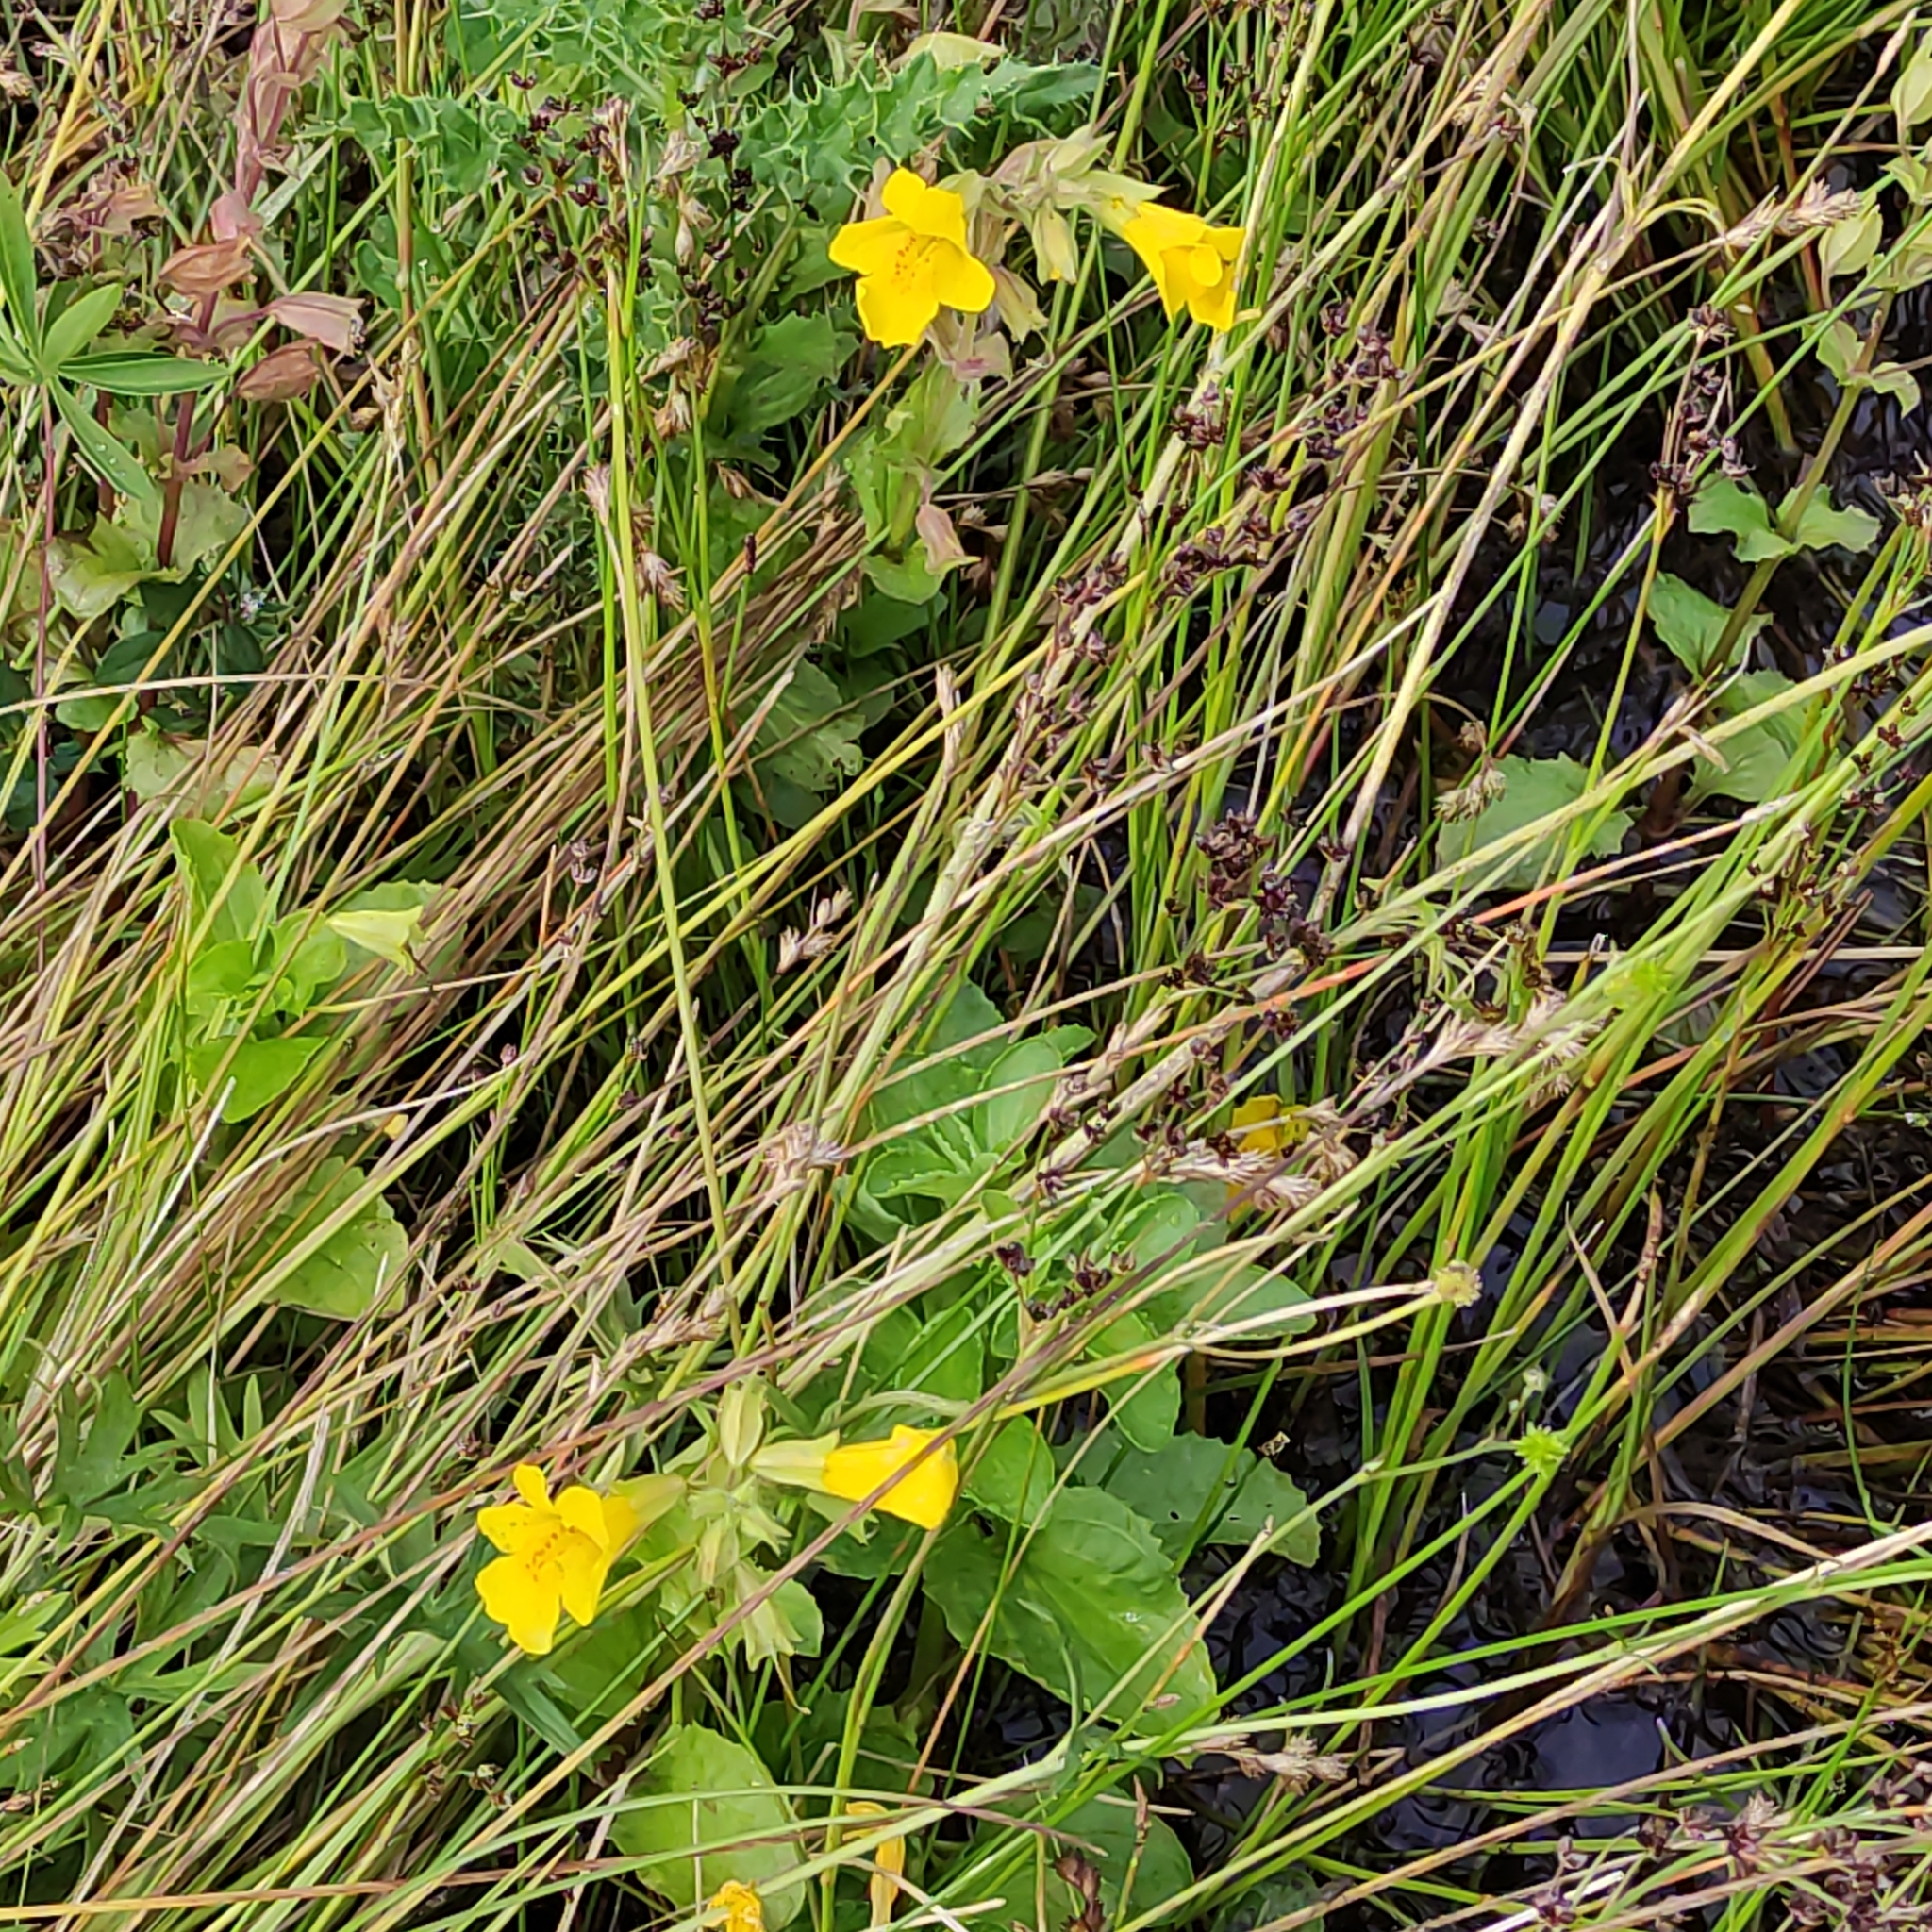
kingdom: Plantae
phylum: Tracheophyta
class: Magnoliopsida
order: Lamiales
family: Phrymaceae
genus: Erythranthe
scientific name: Erythranthe guttata
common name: Monkeyflower
